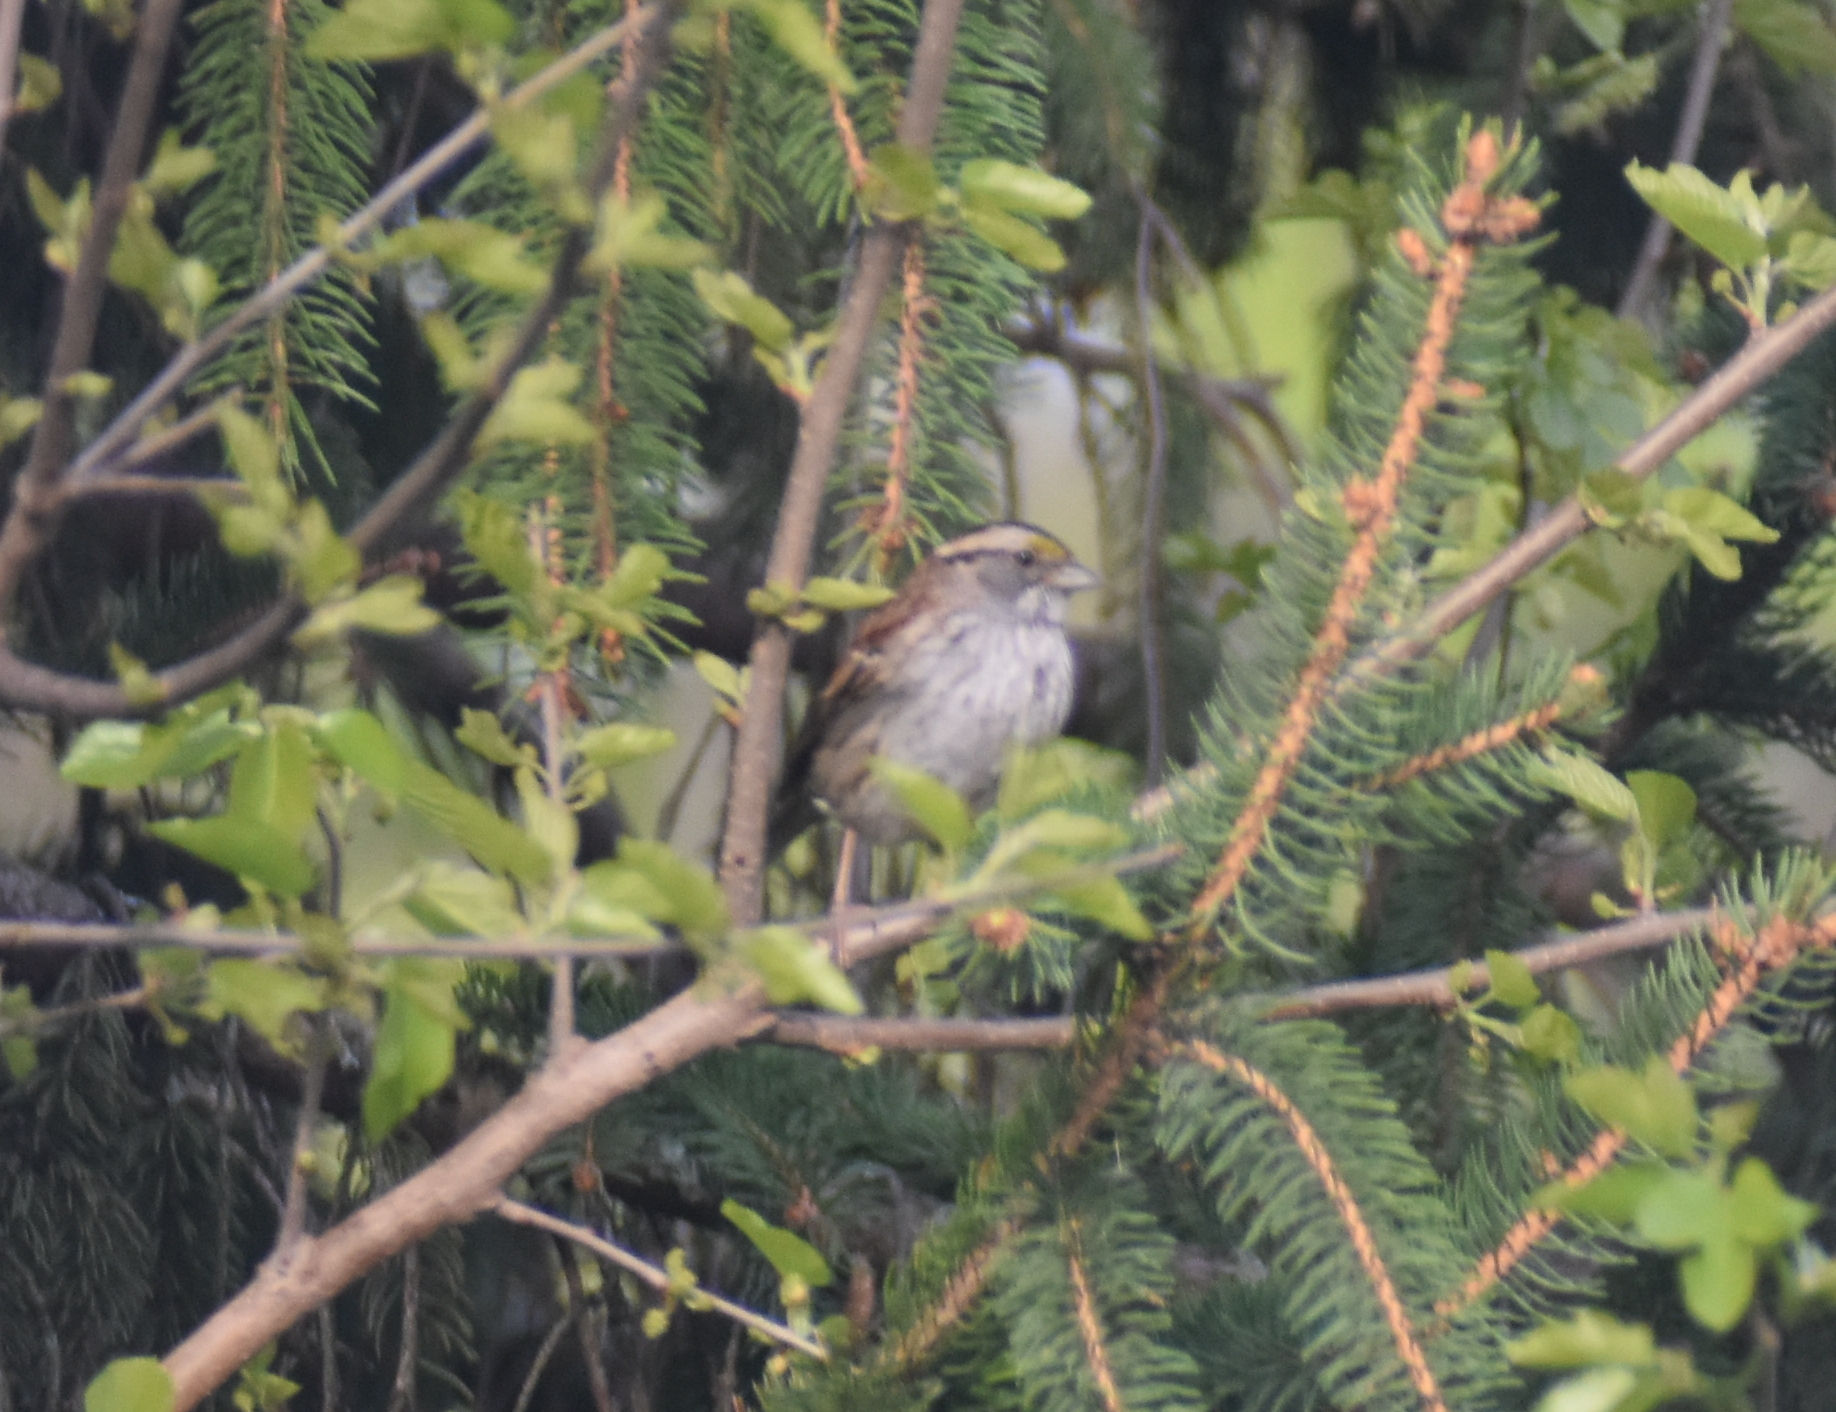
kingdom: Animalia
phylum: Chordata
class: Aves
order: Passeriformes
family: Passerellidae
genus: Zonotrichia
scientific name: Zonotrichia albicollis
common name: White-throated sparrow
